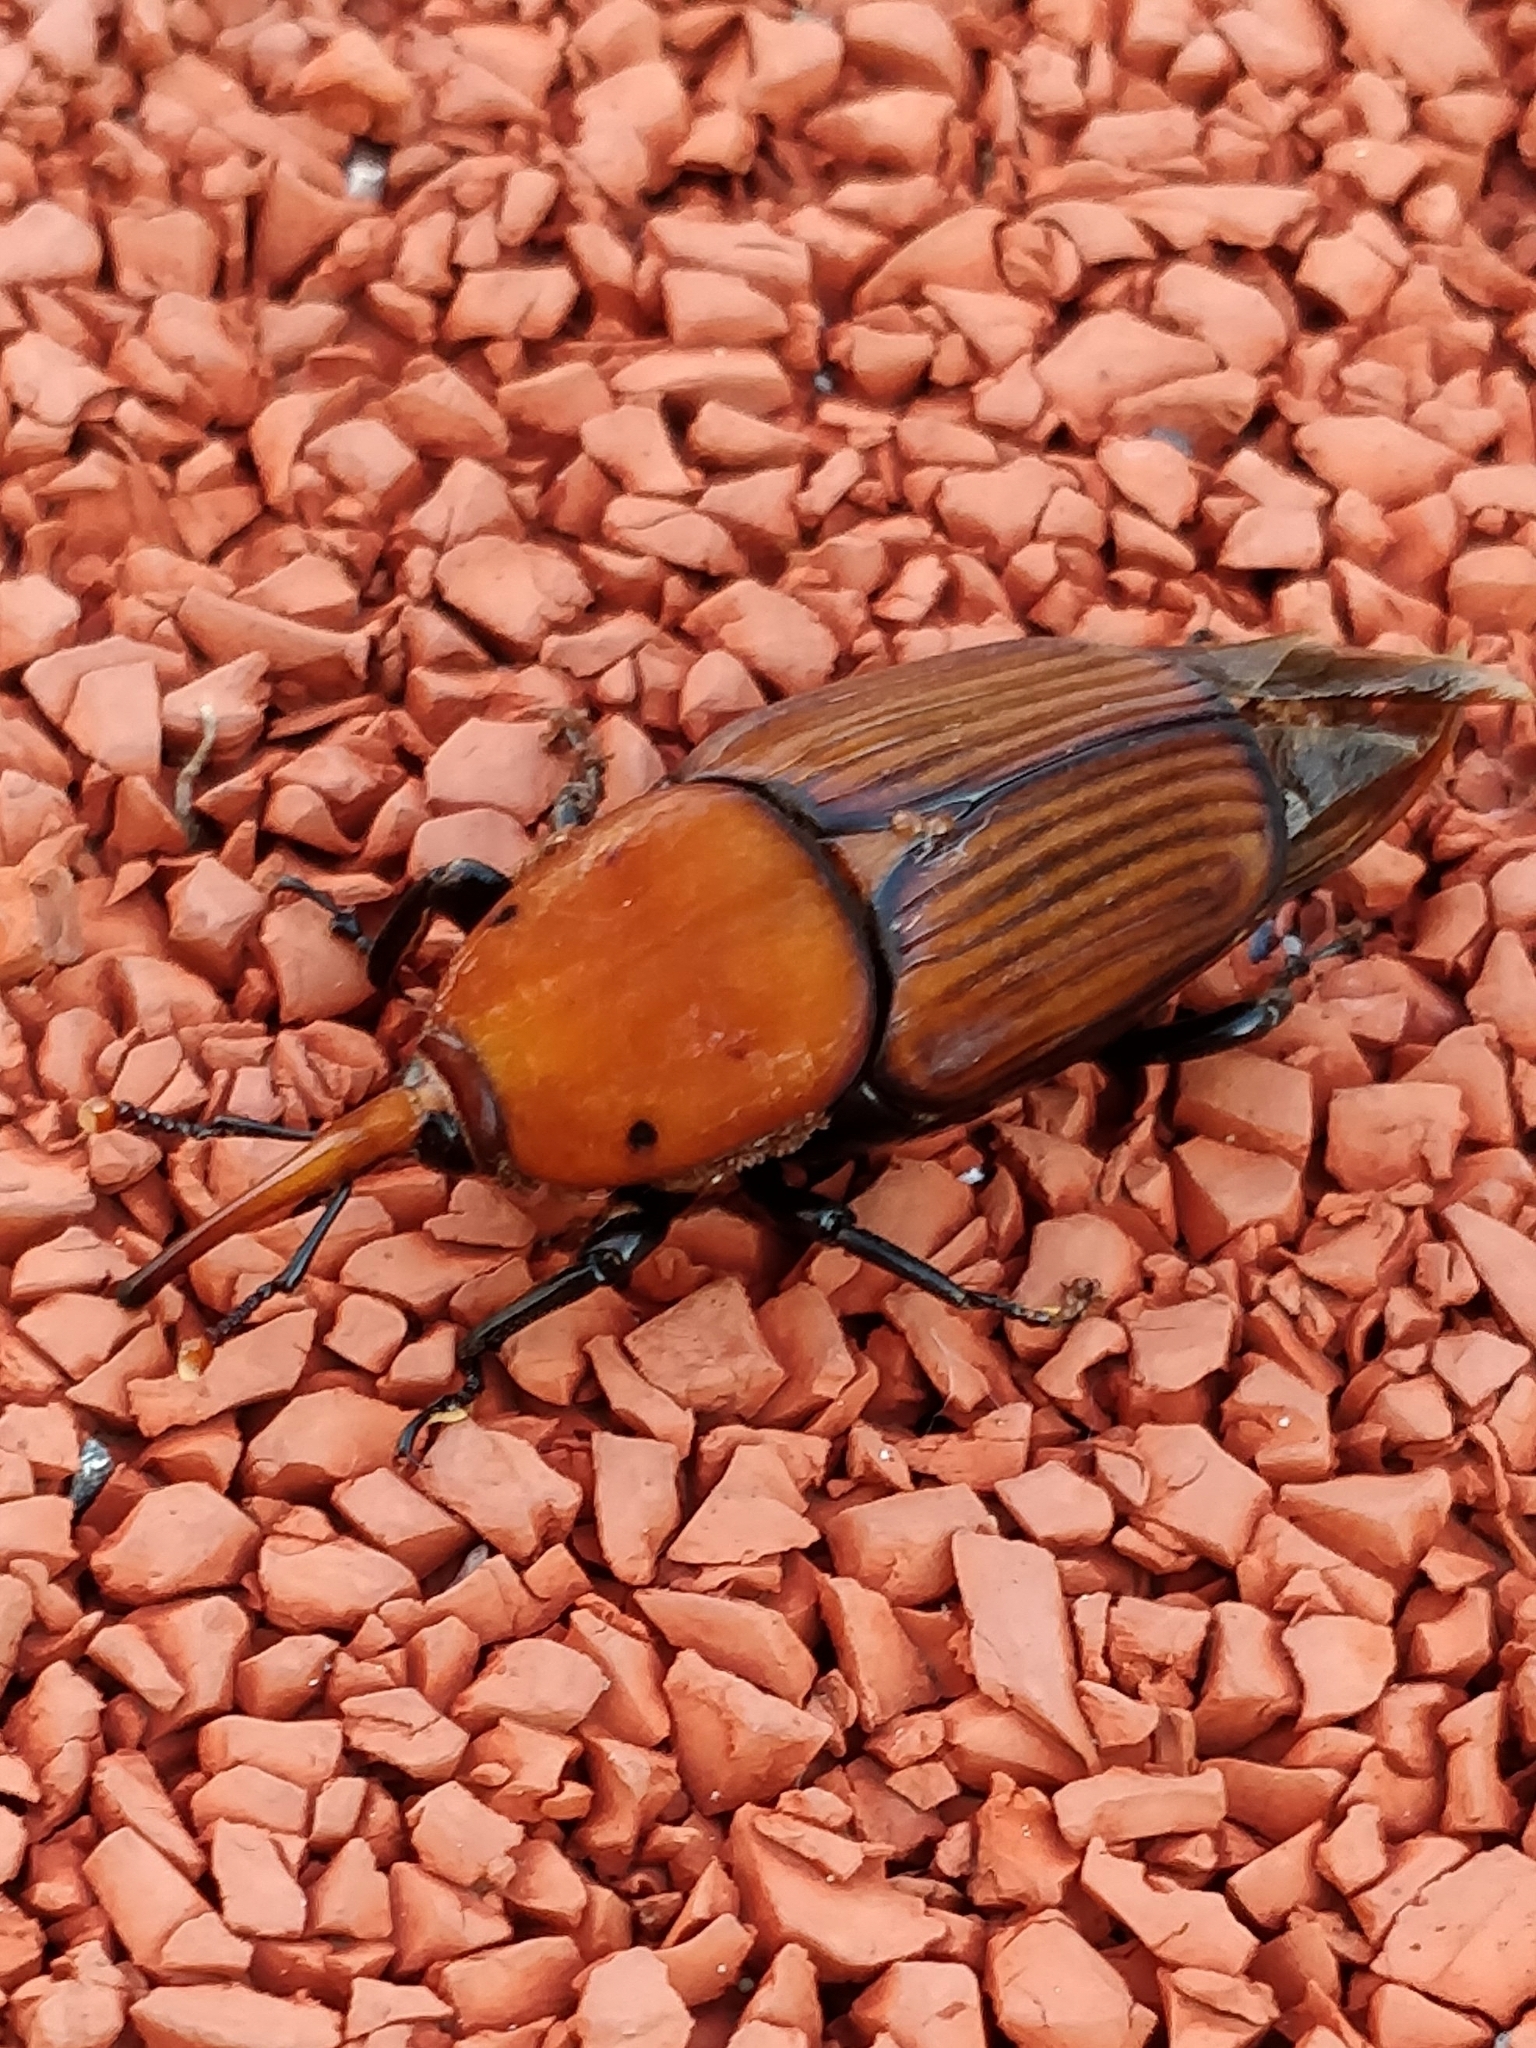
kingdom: Animalia
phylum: Arthropoda
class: Insecta
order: Coleoptera
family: Dryophthoridae
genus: Rhynchophorus
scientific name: Rhynchophorus ferrugineus
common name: Red palm weevil
